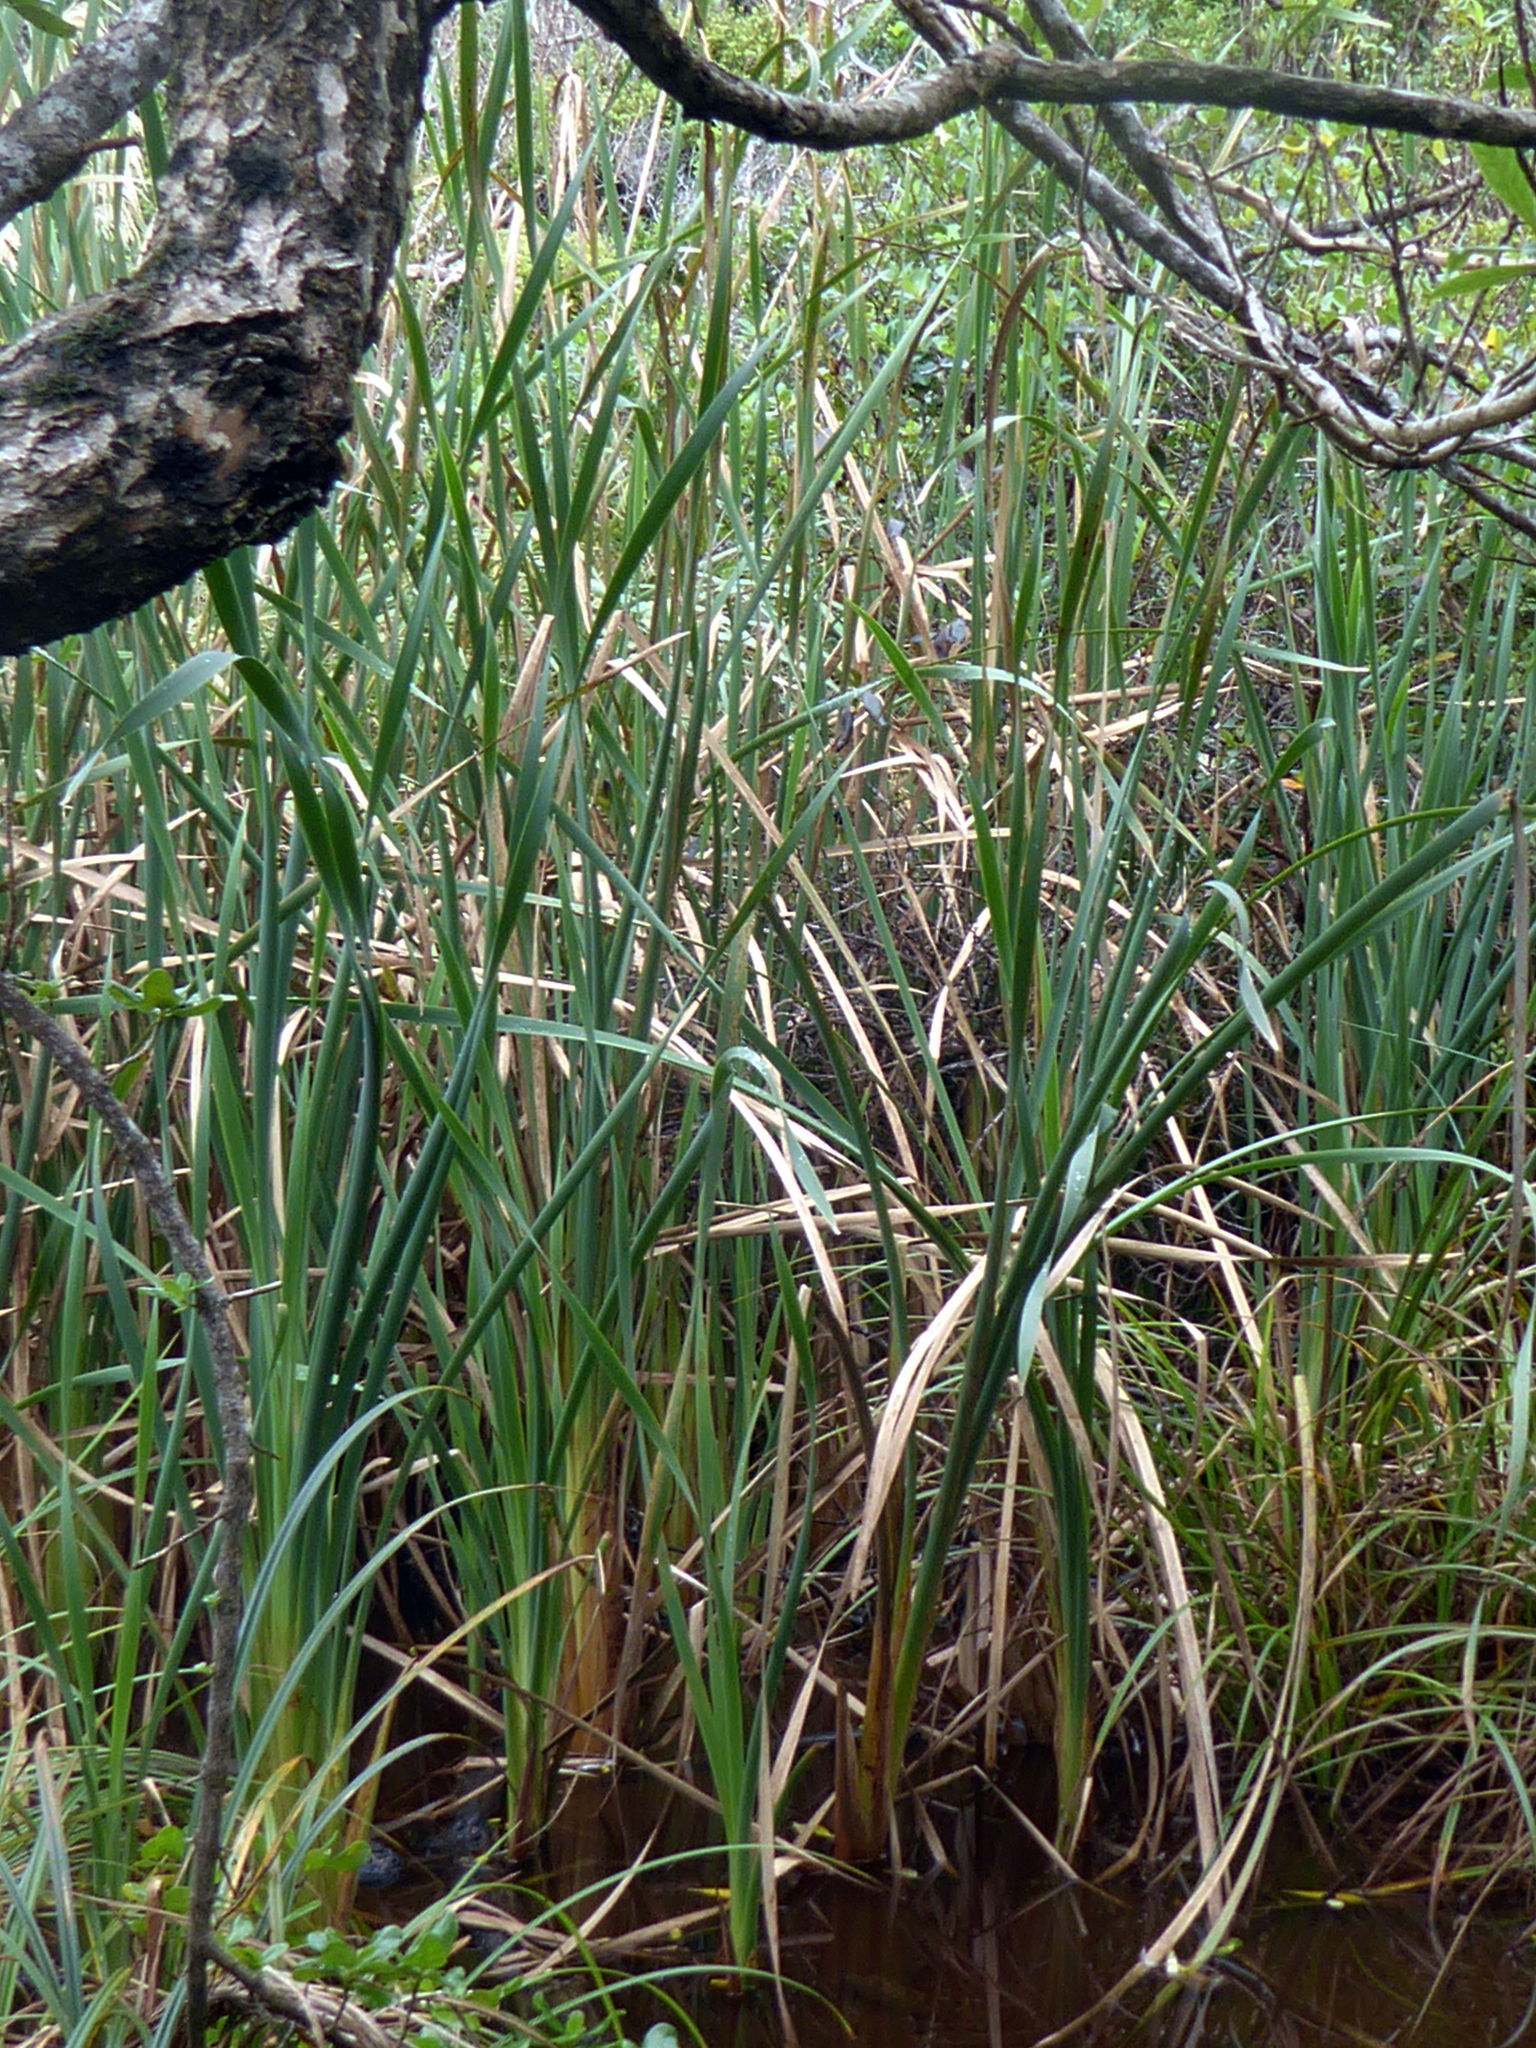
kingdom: Plantae
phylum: Tracheophyta
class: Liliopsida
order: Poales
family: Typhaceae
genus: Typha
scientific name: Typha orientalis
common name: Bullrush
